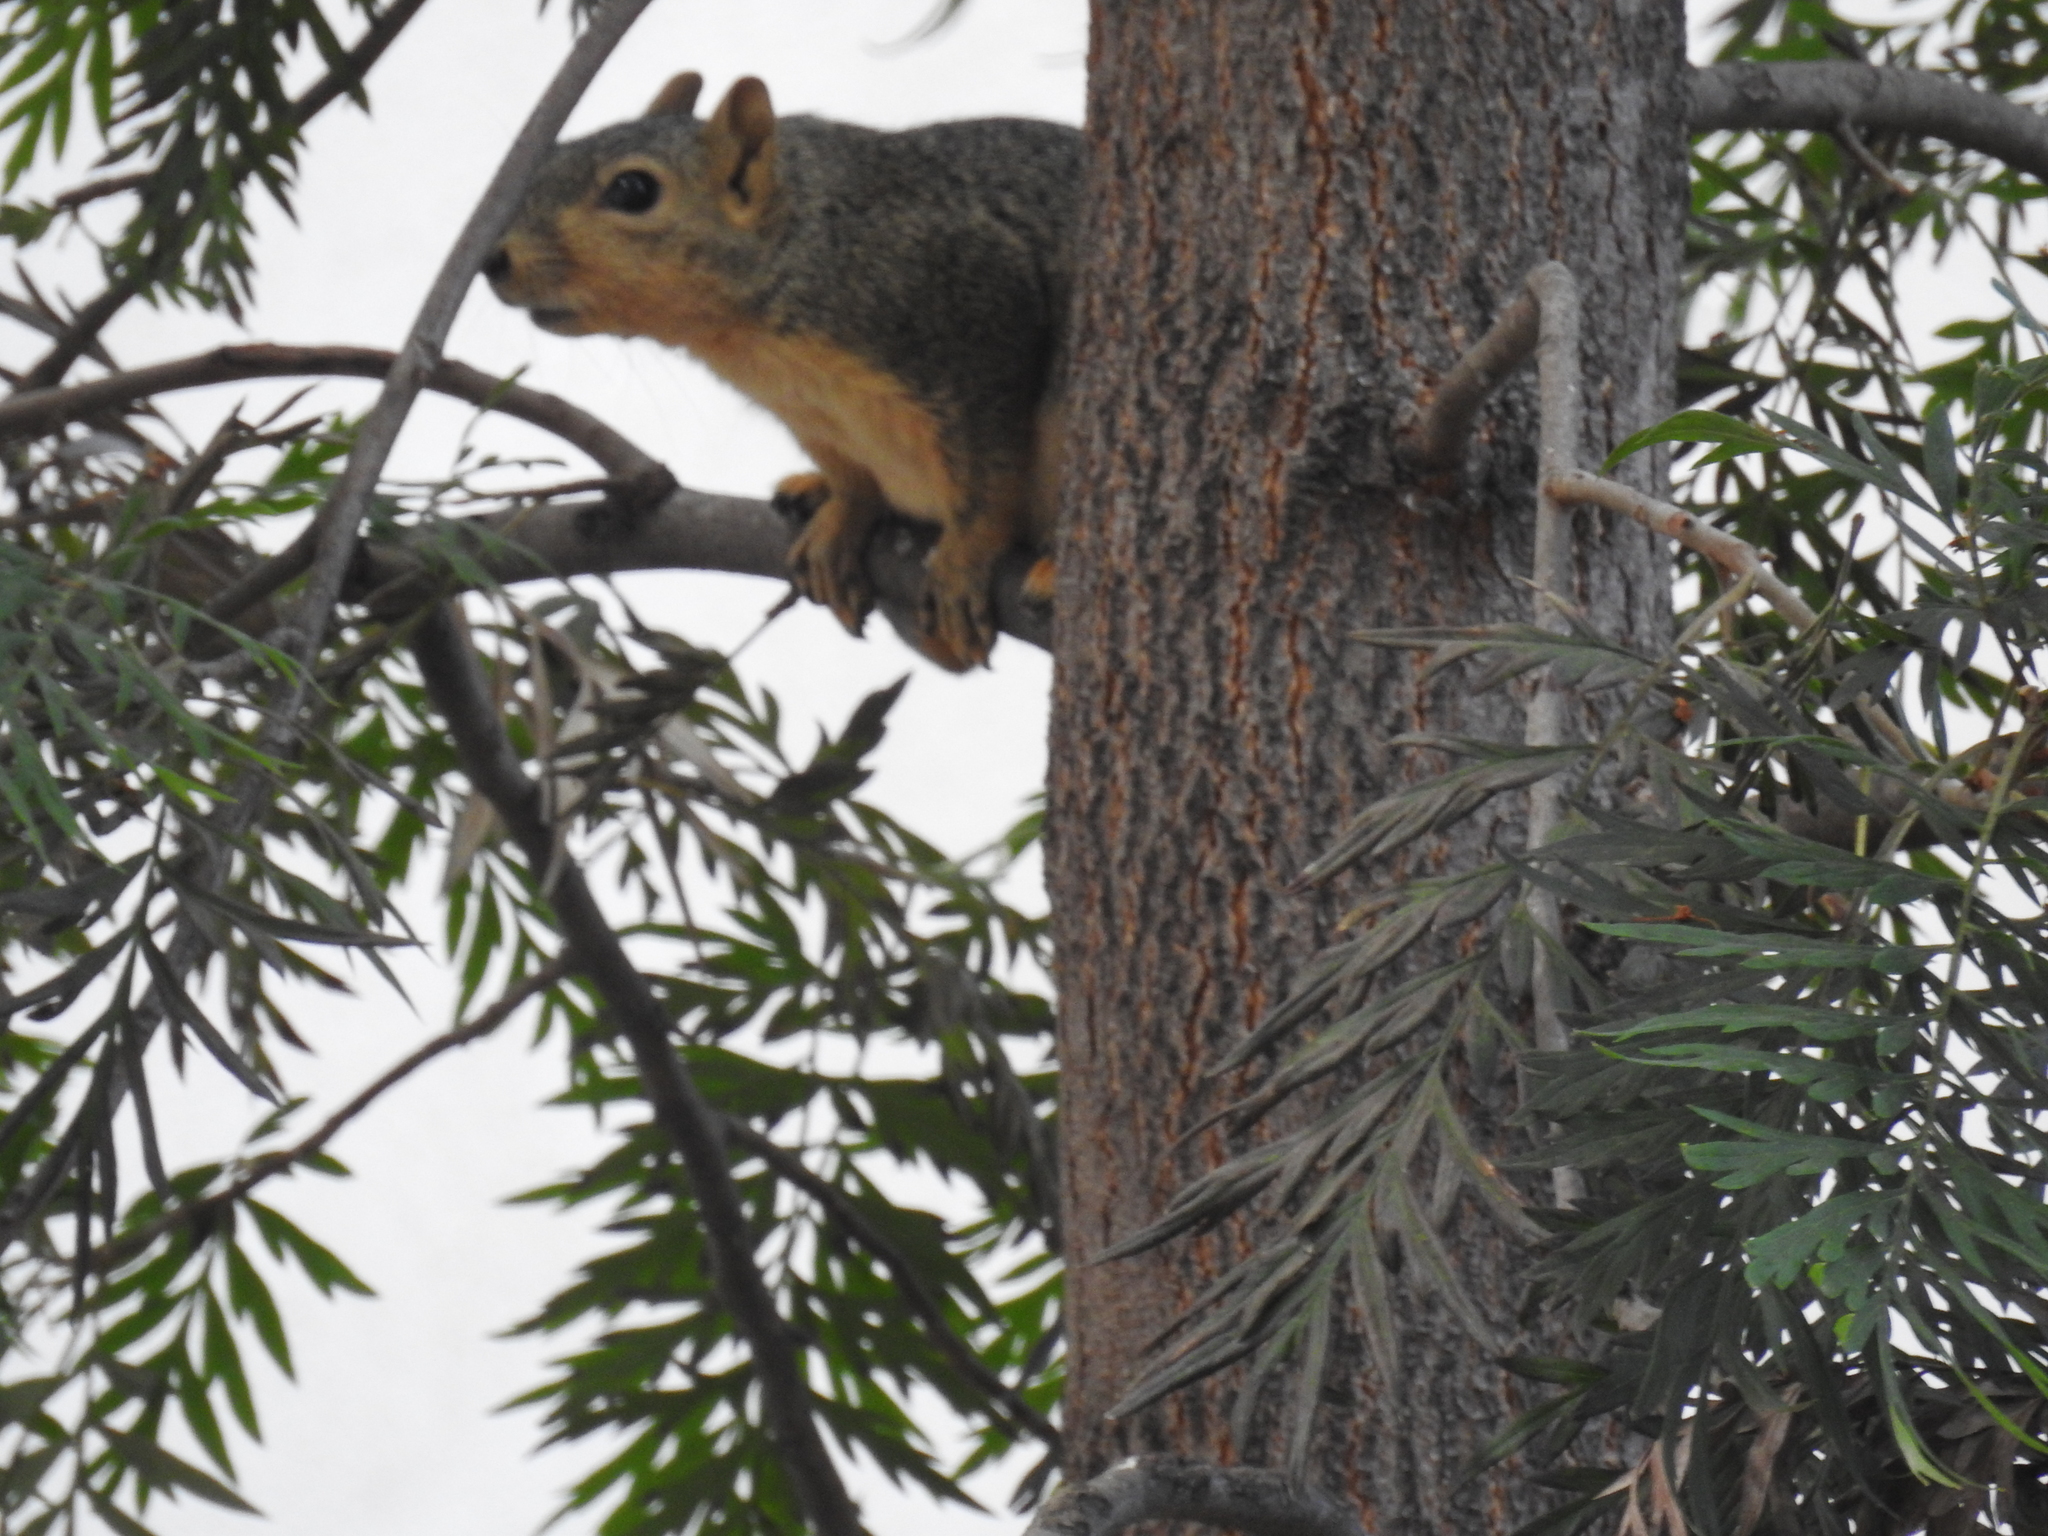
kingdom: Animalia
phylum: Chordata
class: Mammalia
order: Rodentia
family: Sciuridae
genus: Sciurus
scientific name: Sciurus niger
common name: Fox squirrel
